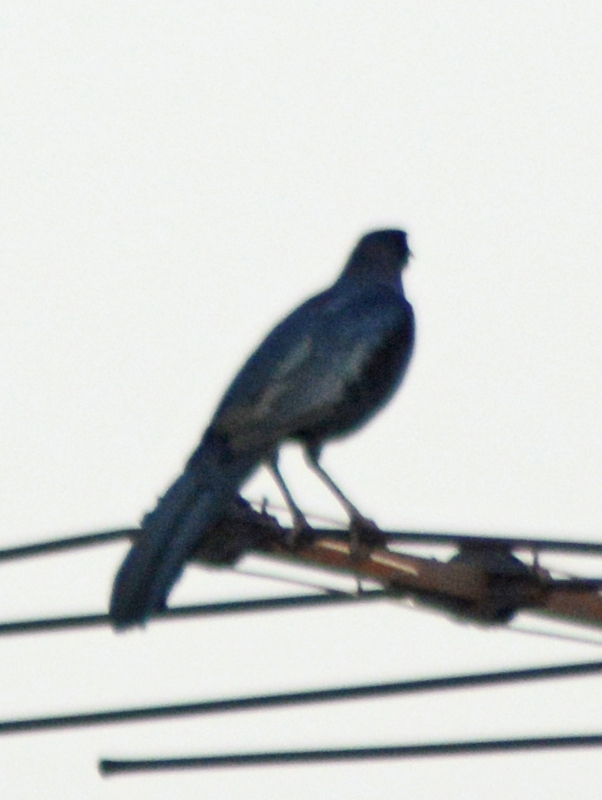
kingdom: Animalia
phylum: Chordata
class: Aves
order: Passeriformes
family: Icteridae
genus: Quiscalus
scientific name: Quiscalus mexicanus
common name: Great-tailed grackle
